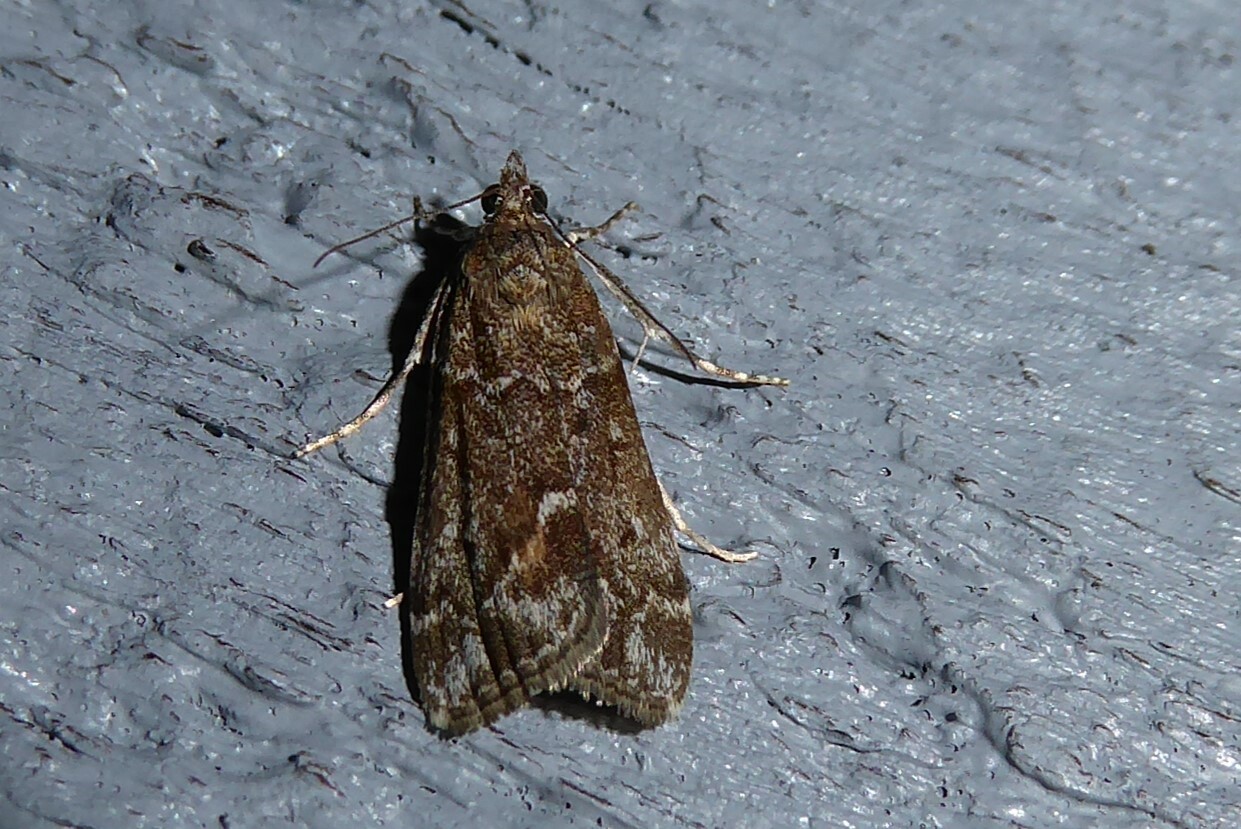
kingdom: Animalia
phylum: Arthropoda
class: Insecta
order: Lepidoptera
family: Crambidae
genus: Eudonia
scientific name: Eudonia submarginalis
